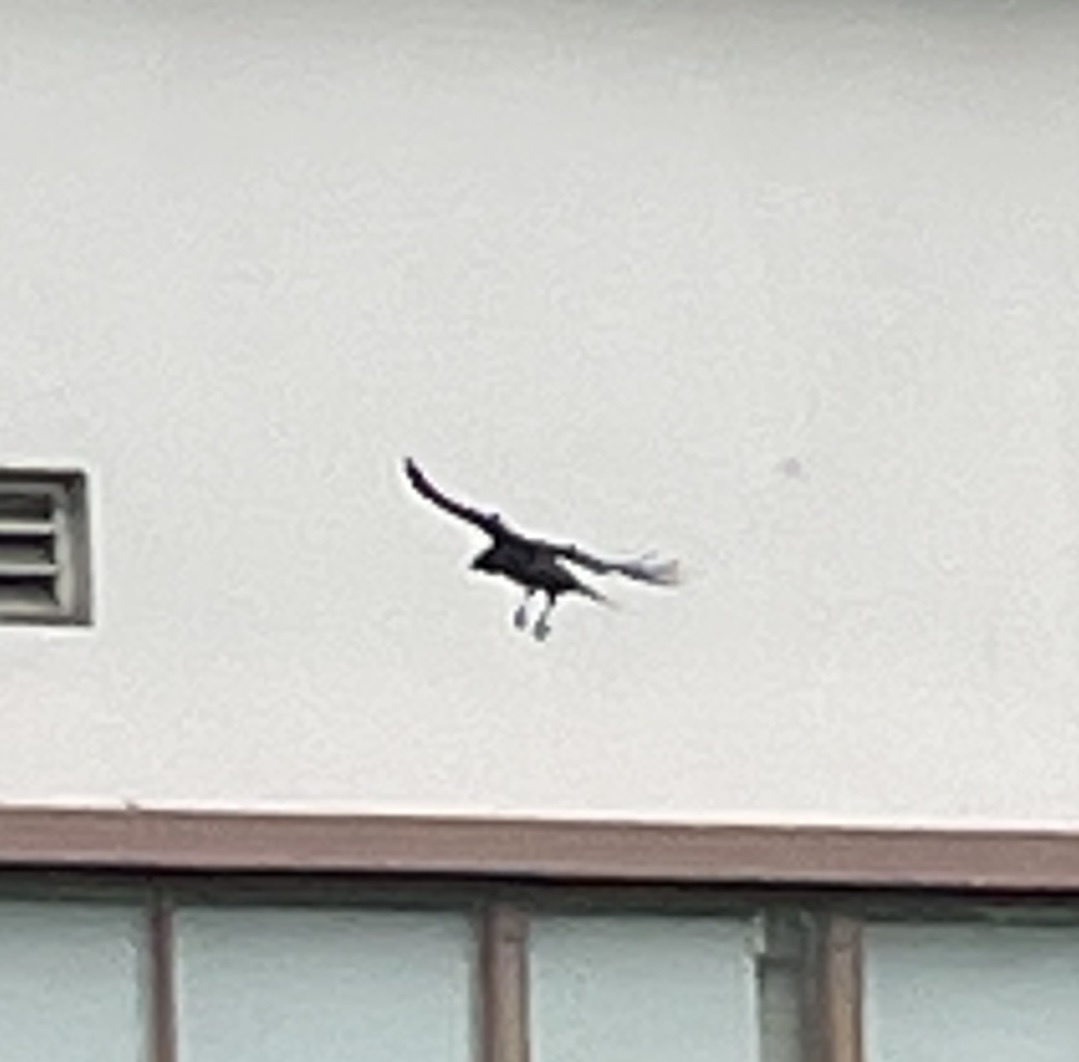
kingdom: Animalia
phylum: Chordata
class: Aves
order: Passeriformes
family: Corvidae
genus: Corvus
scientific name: Corvus brachyrhynchos
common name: American crow
